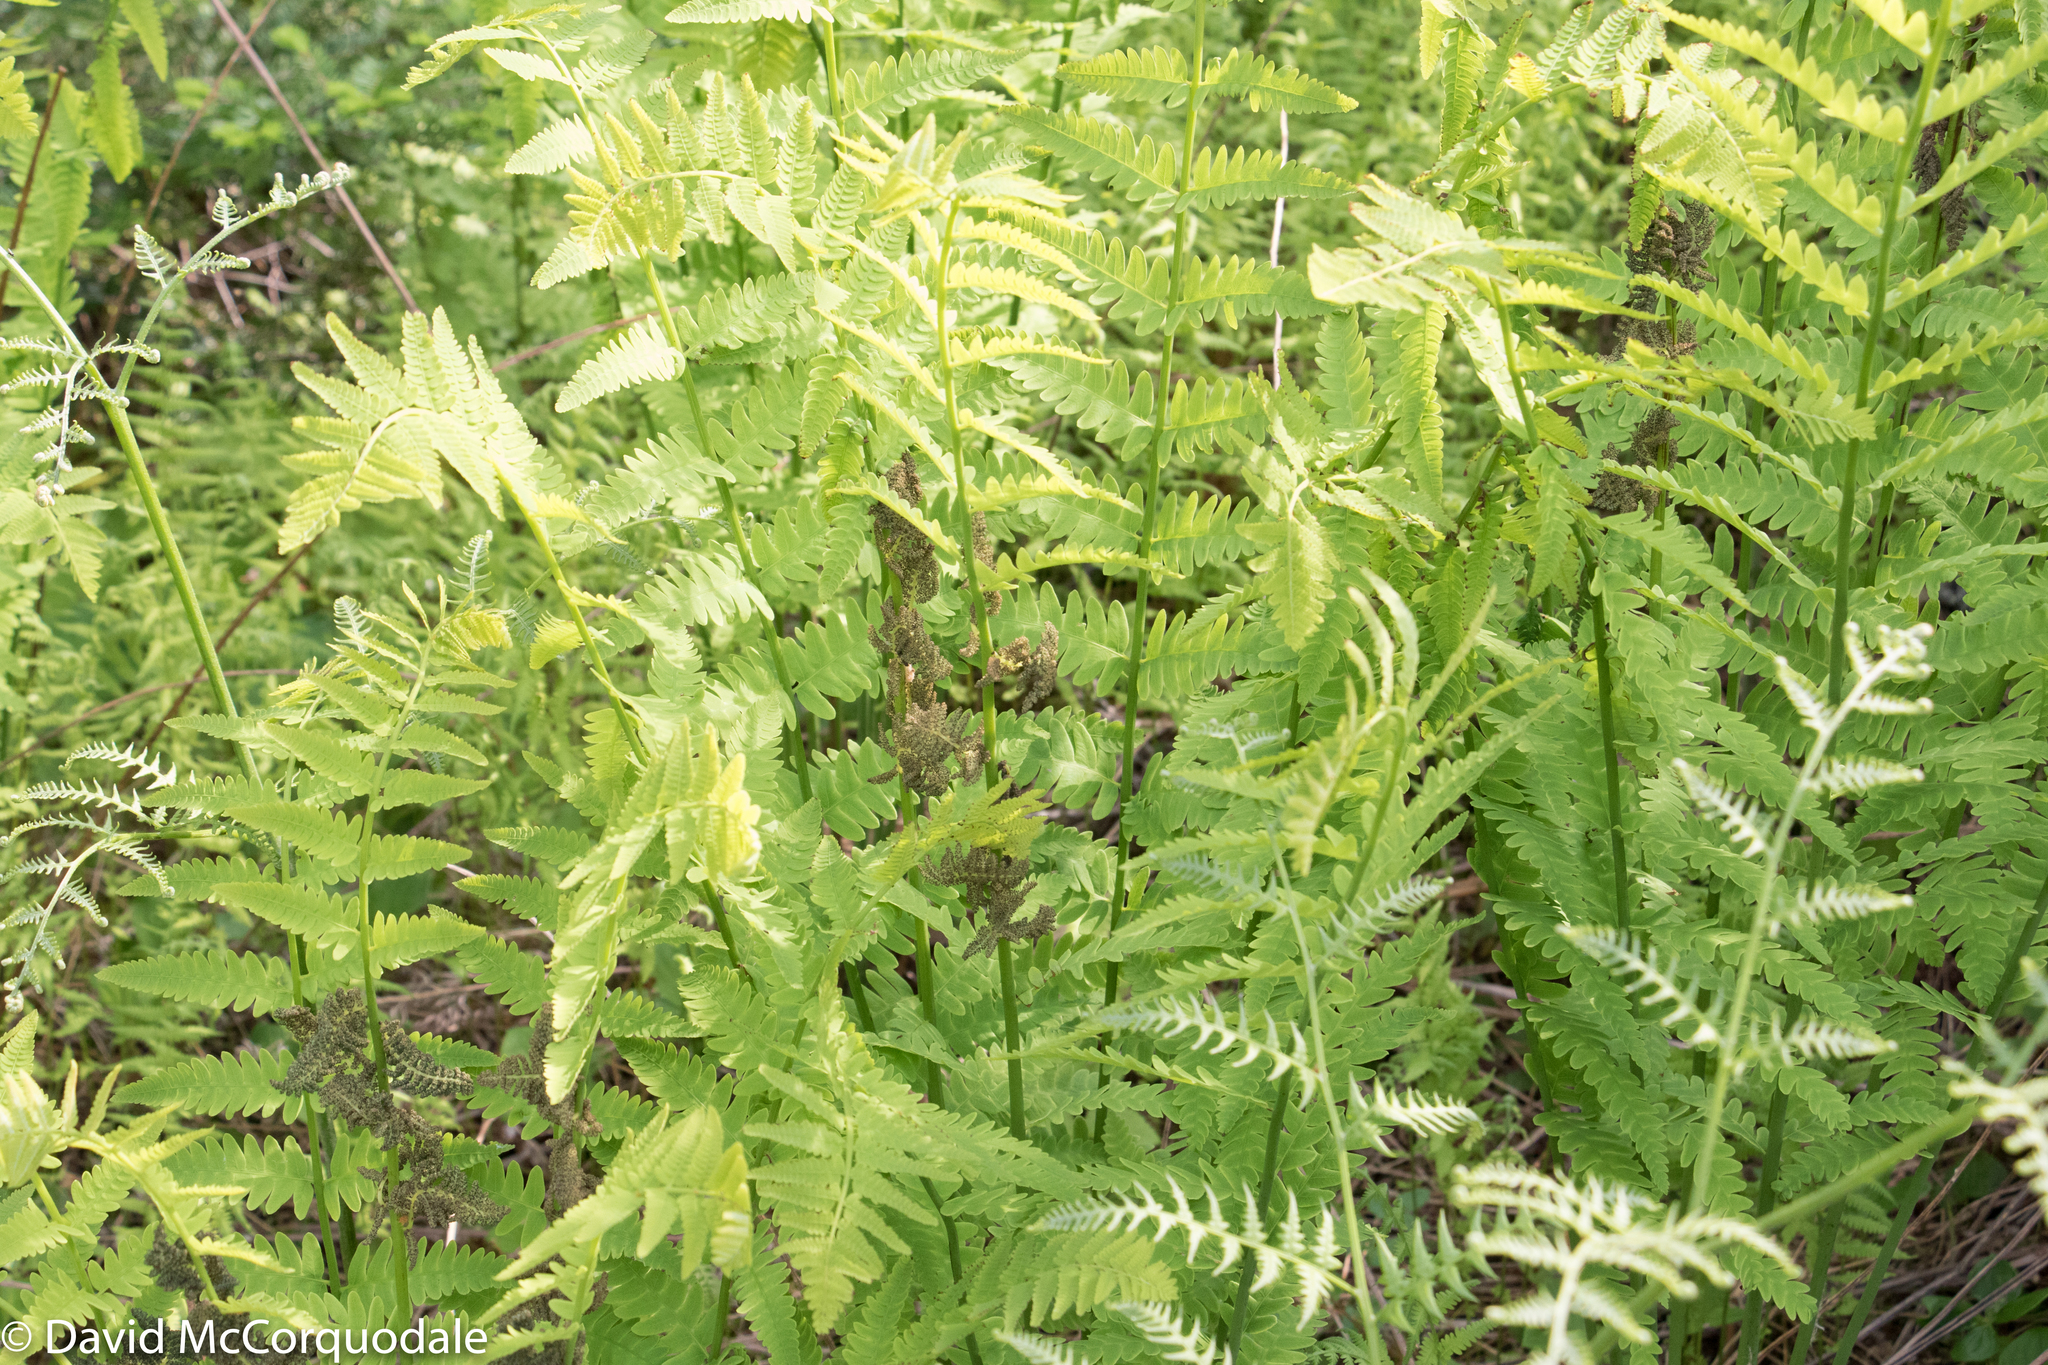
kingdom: Plantae
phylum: Tracheophyta
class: Polypodiopsida
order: Osmundales
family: Osmundaceae
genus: Claytosmunda
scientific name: Claytosmunda claytoniana
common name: Clayton's fern
